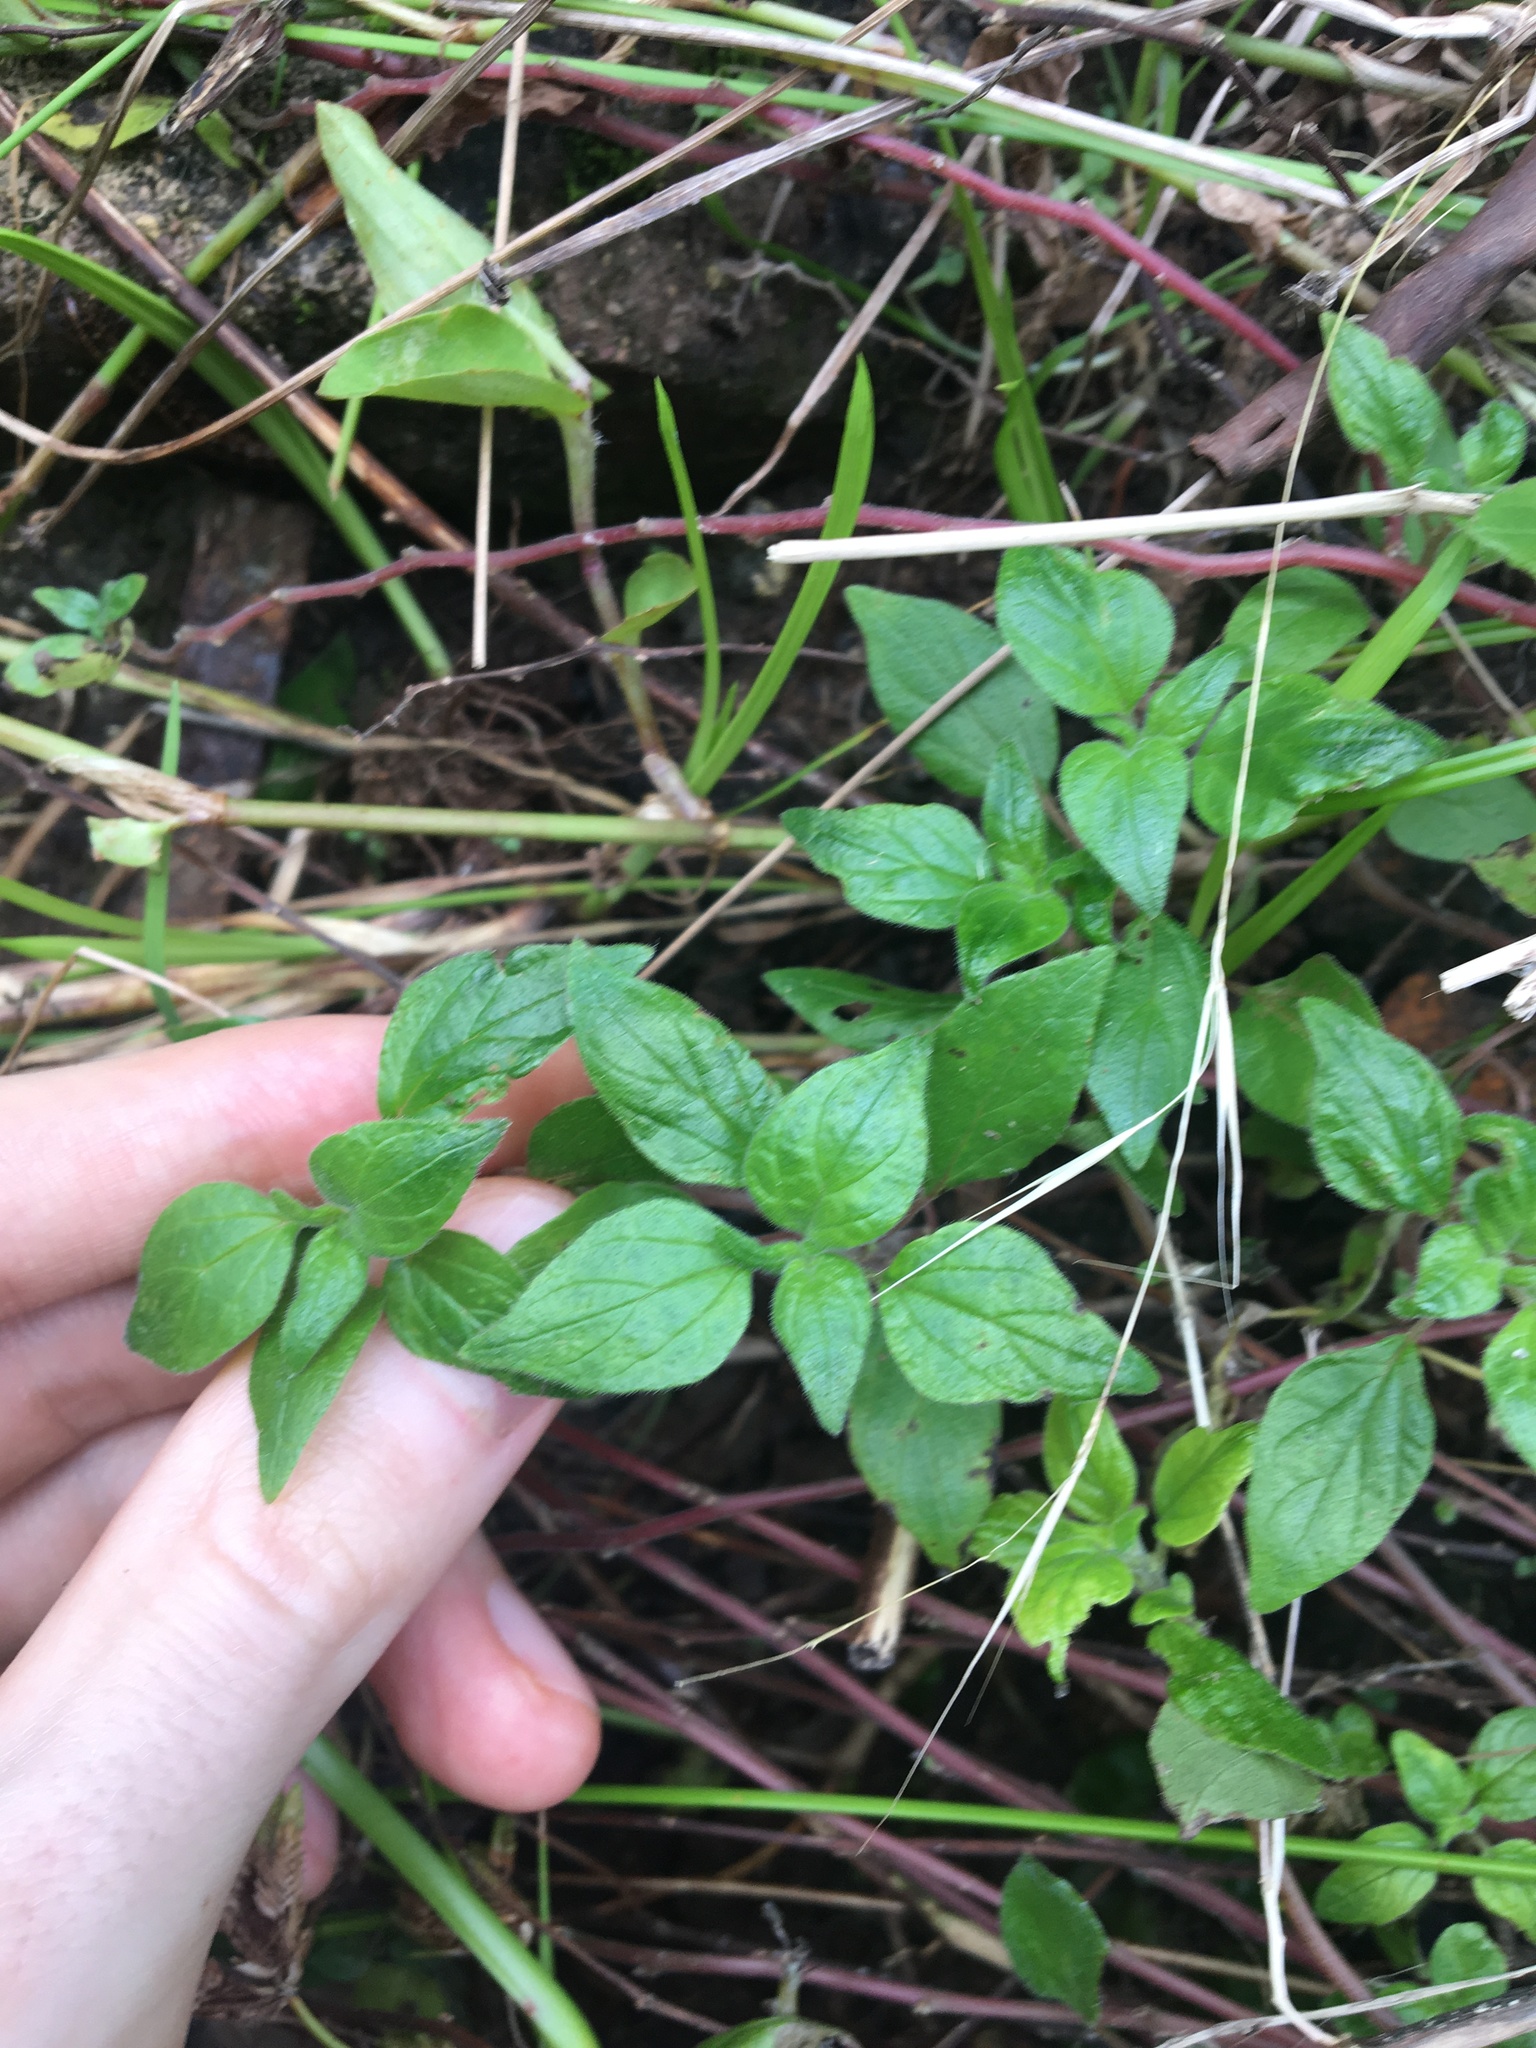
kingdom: Plantae
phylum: Tracheophyta
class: Magnoliopsida
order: Rosales
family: Urticaceae
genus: Parietaria
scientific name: Parietaria judaica
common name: Pellitory-of-the-wall
